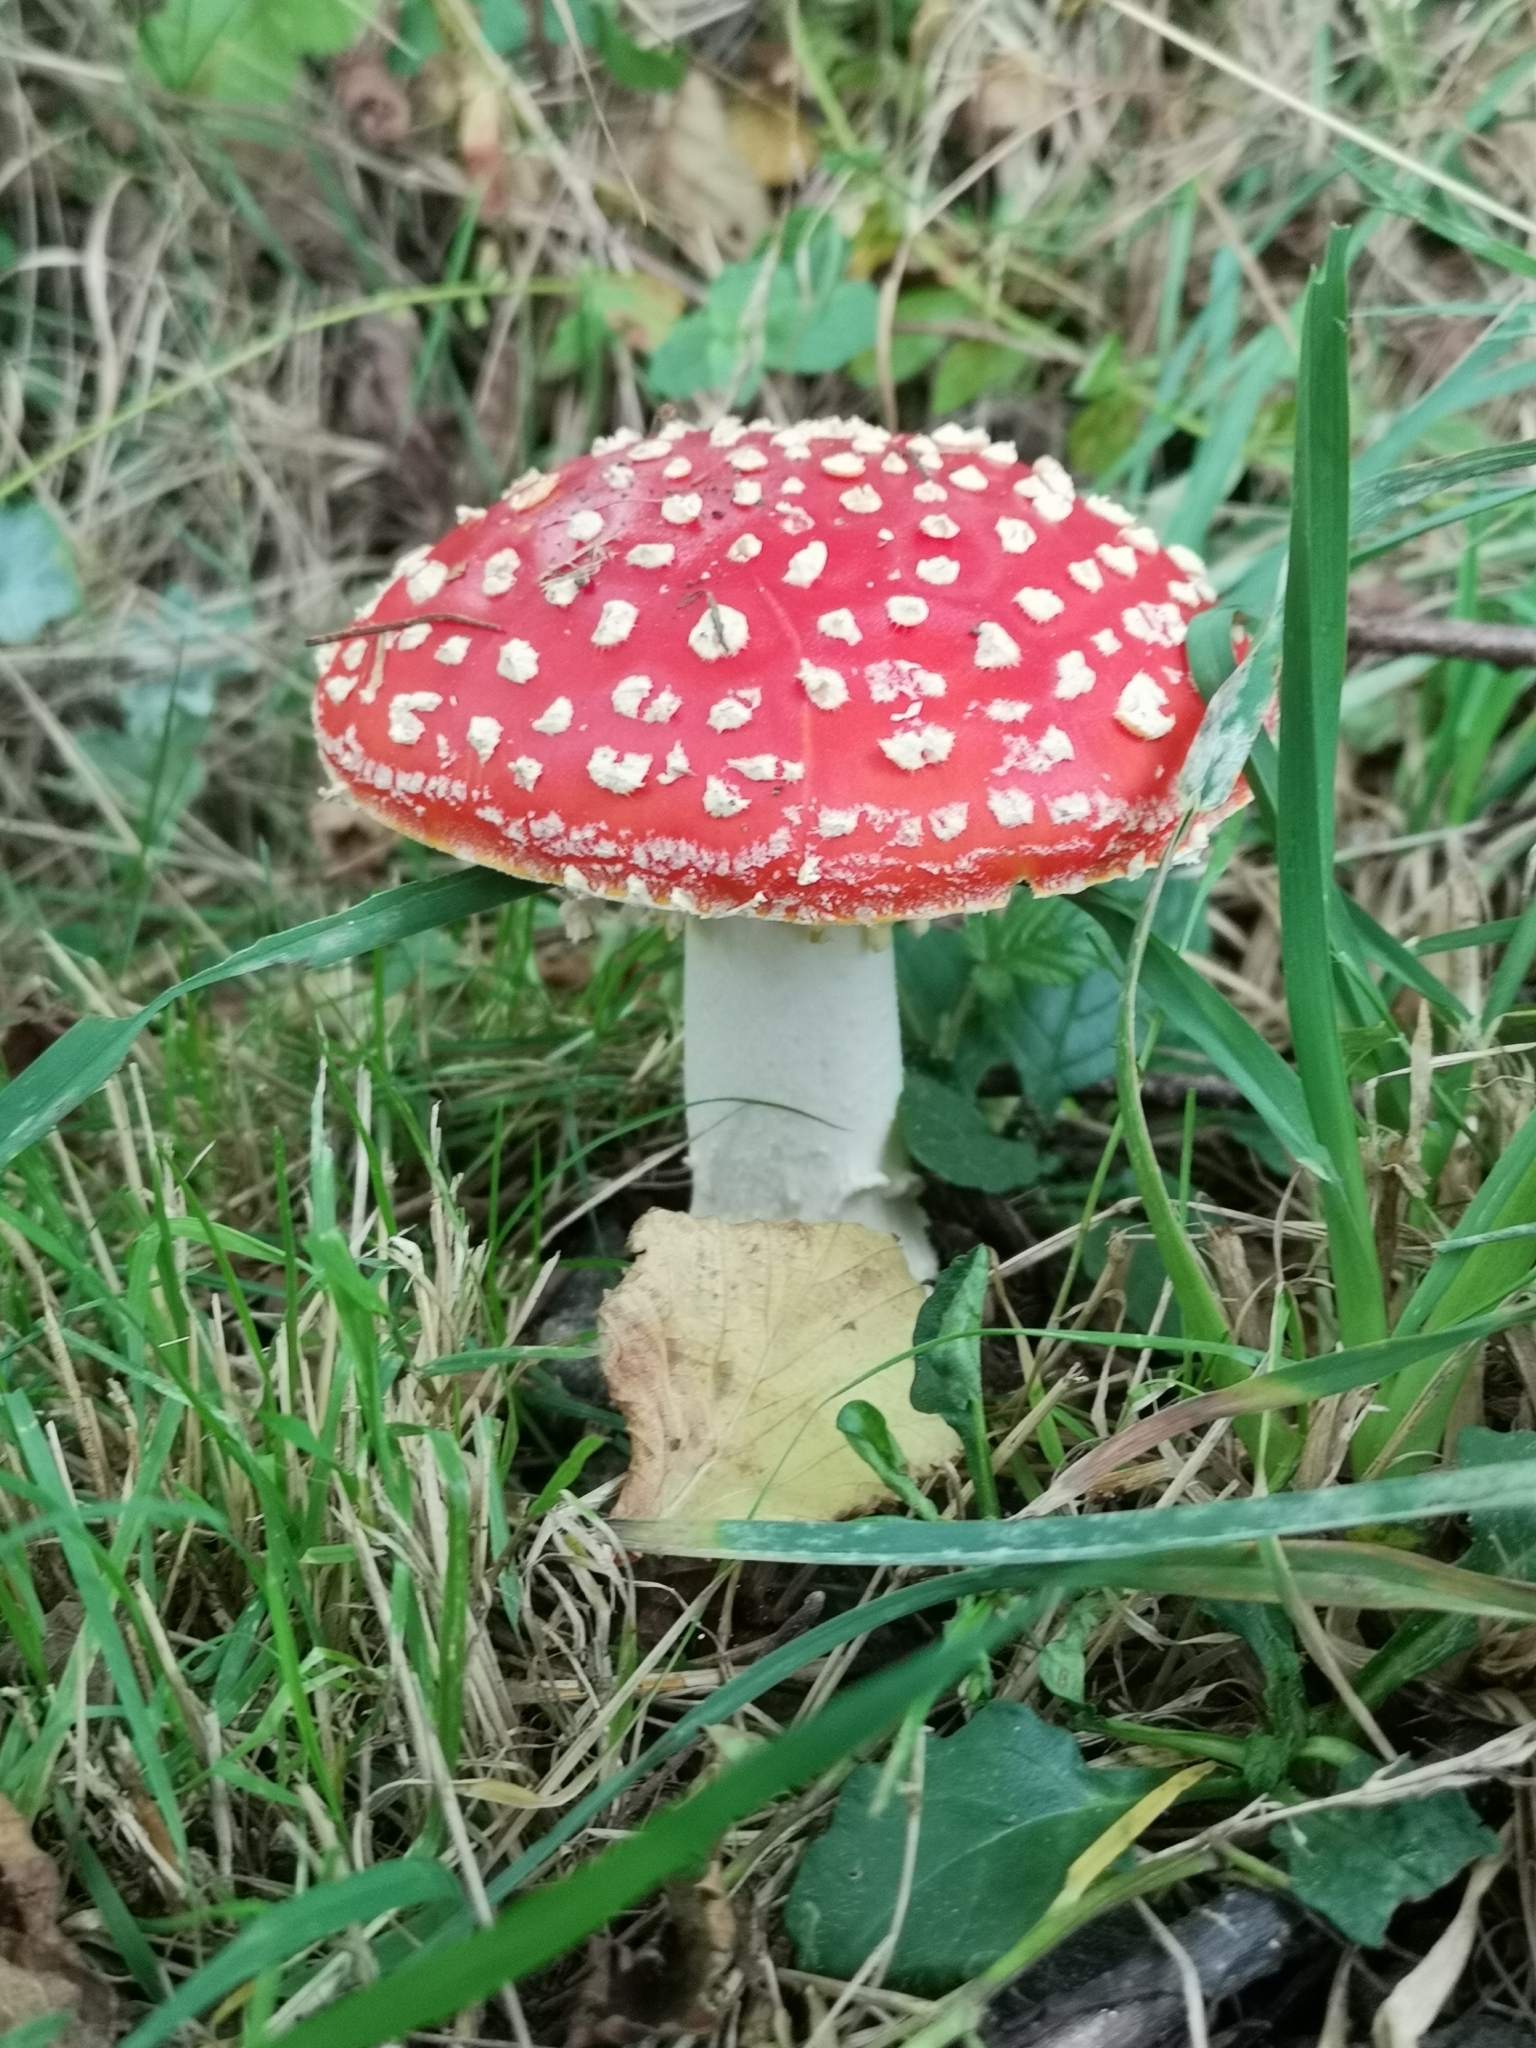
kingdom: Fungi
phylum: Basidiomycota
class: Agaricomycetes
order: Agaricales
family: Amanitaceae
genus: Amanita
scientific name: Amanita muscaria
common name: Fly agaric
